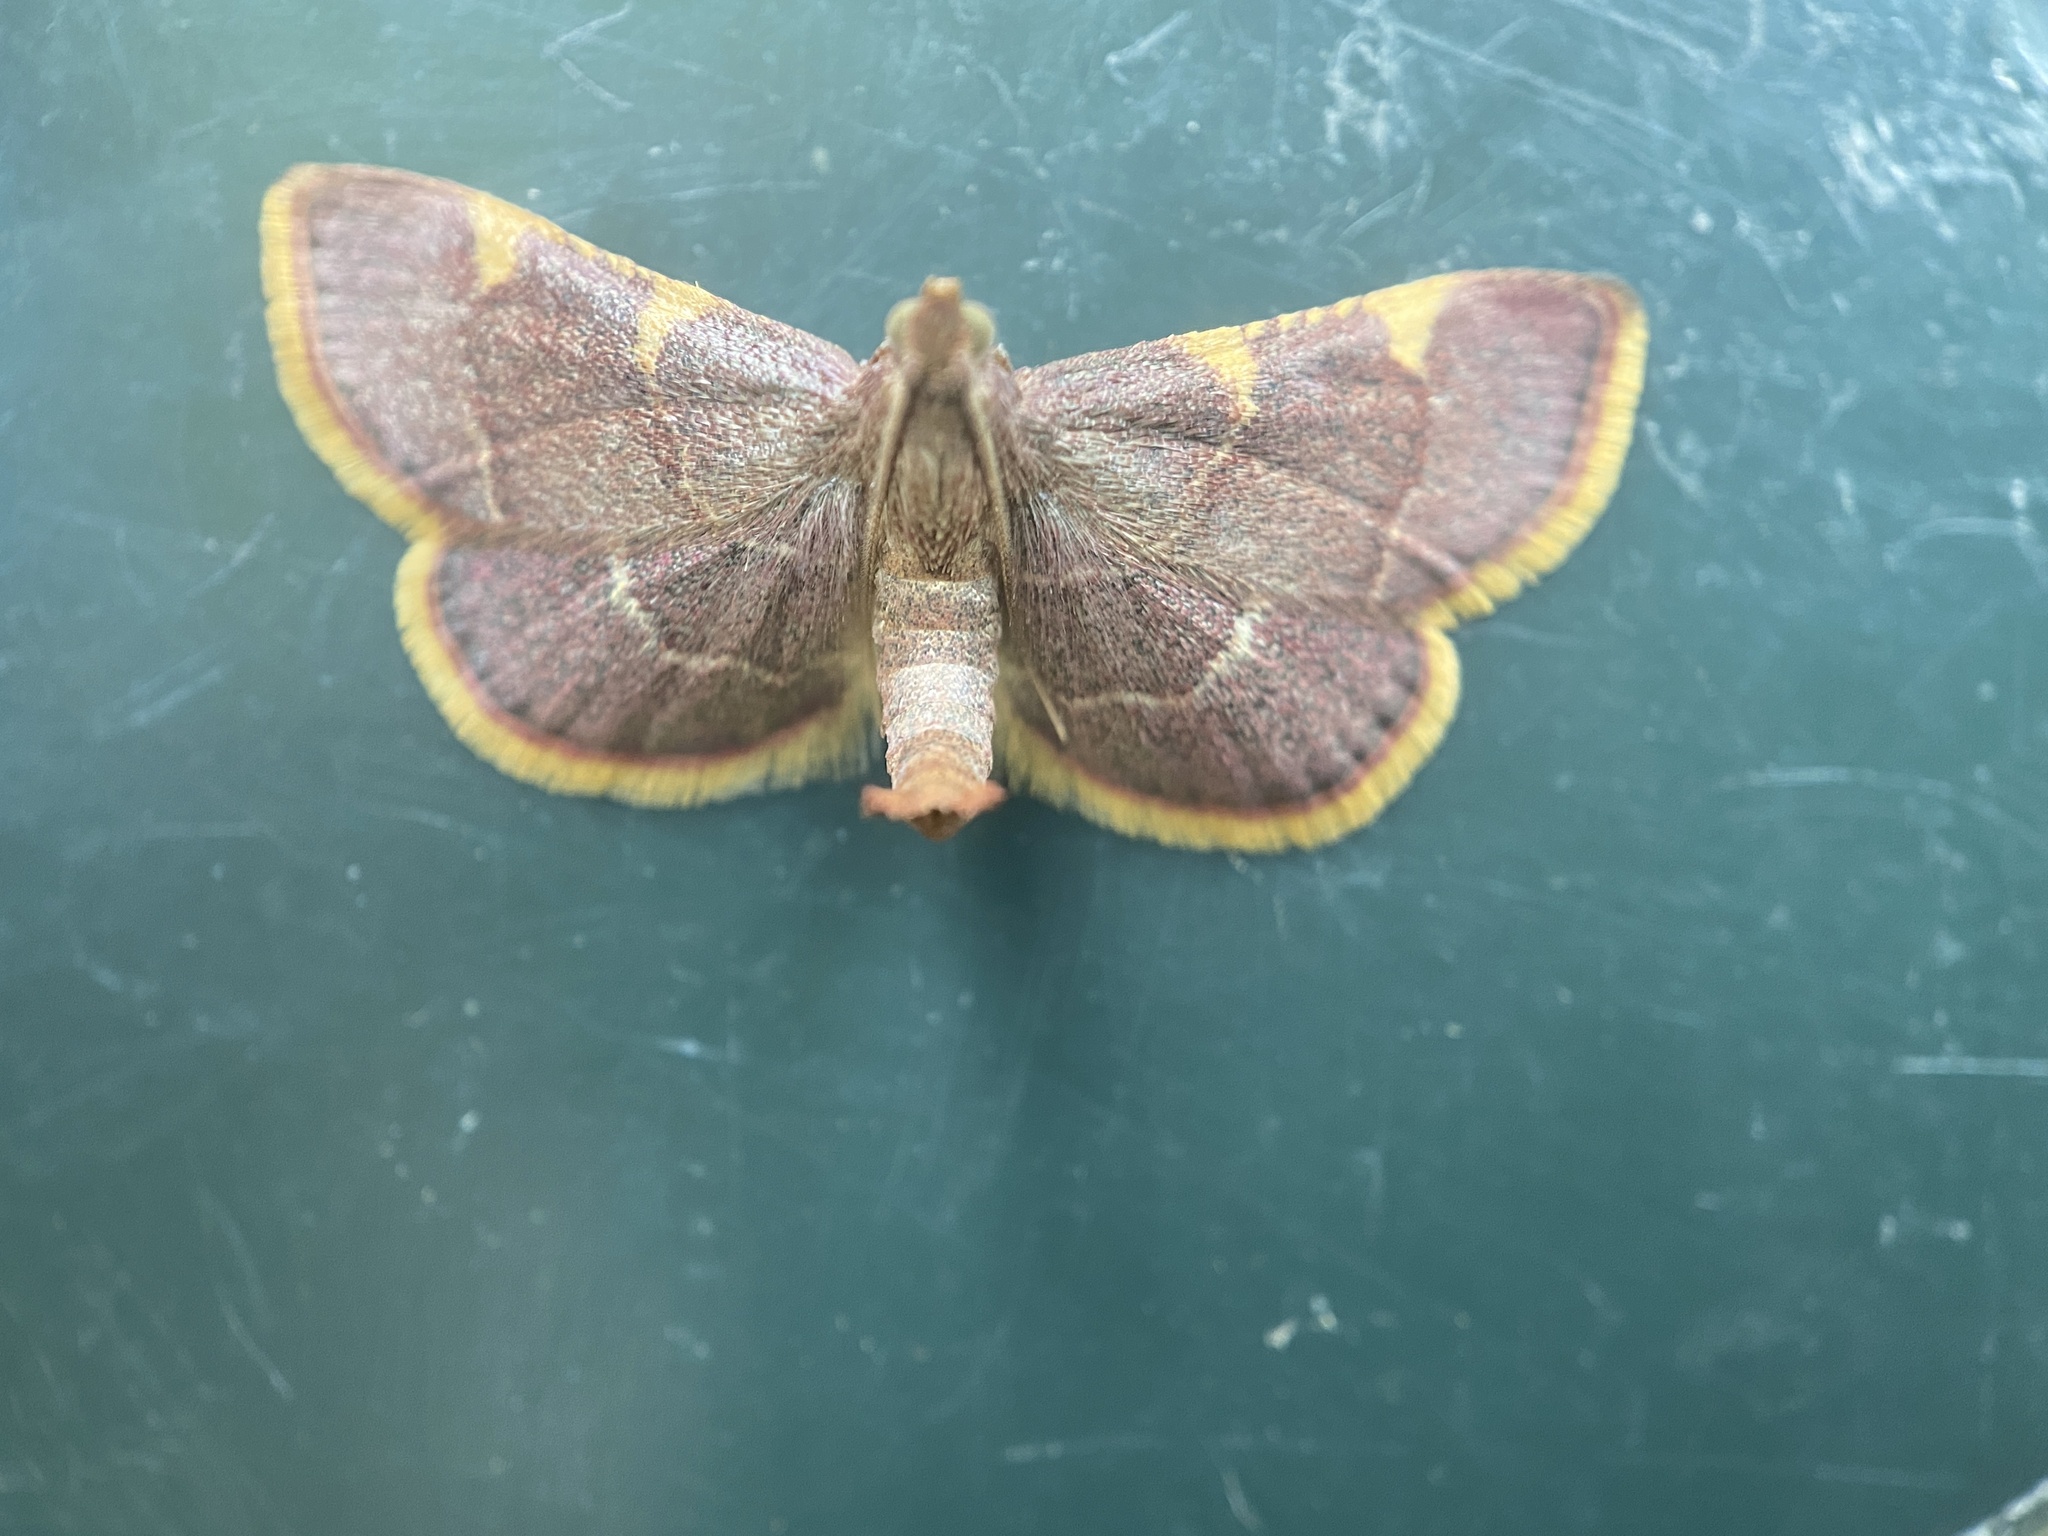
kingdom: Animalia
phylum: Arthropoda
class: Insecta
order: Lepidoptera
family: Pyralidae
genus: Hypsopygia
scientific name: Hypsopygia costalis
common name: Gold triangle
